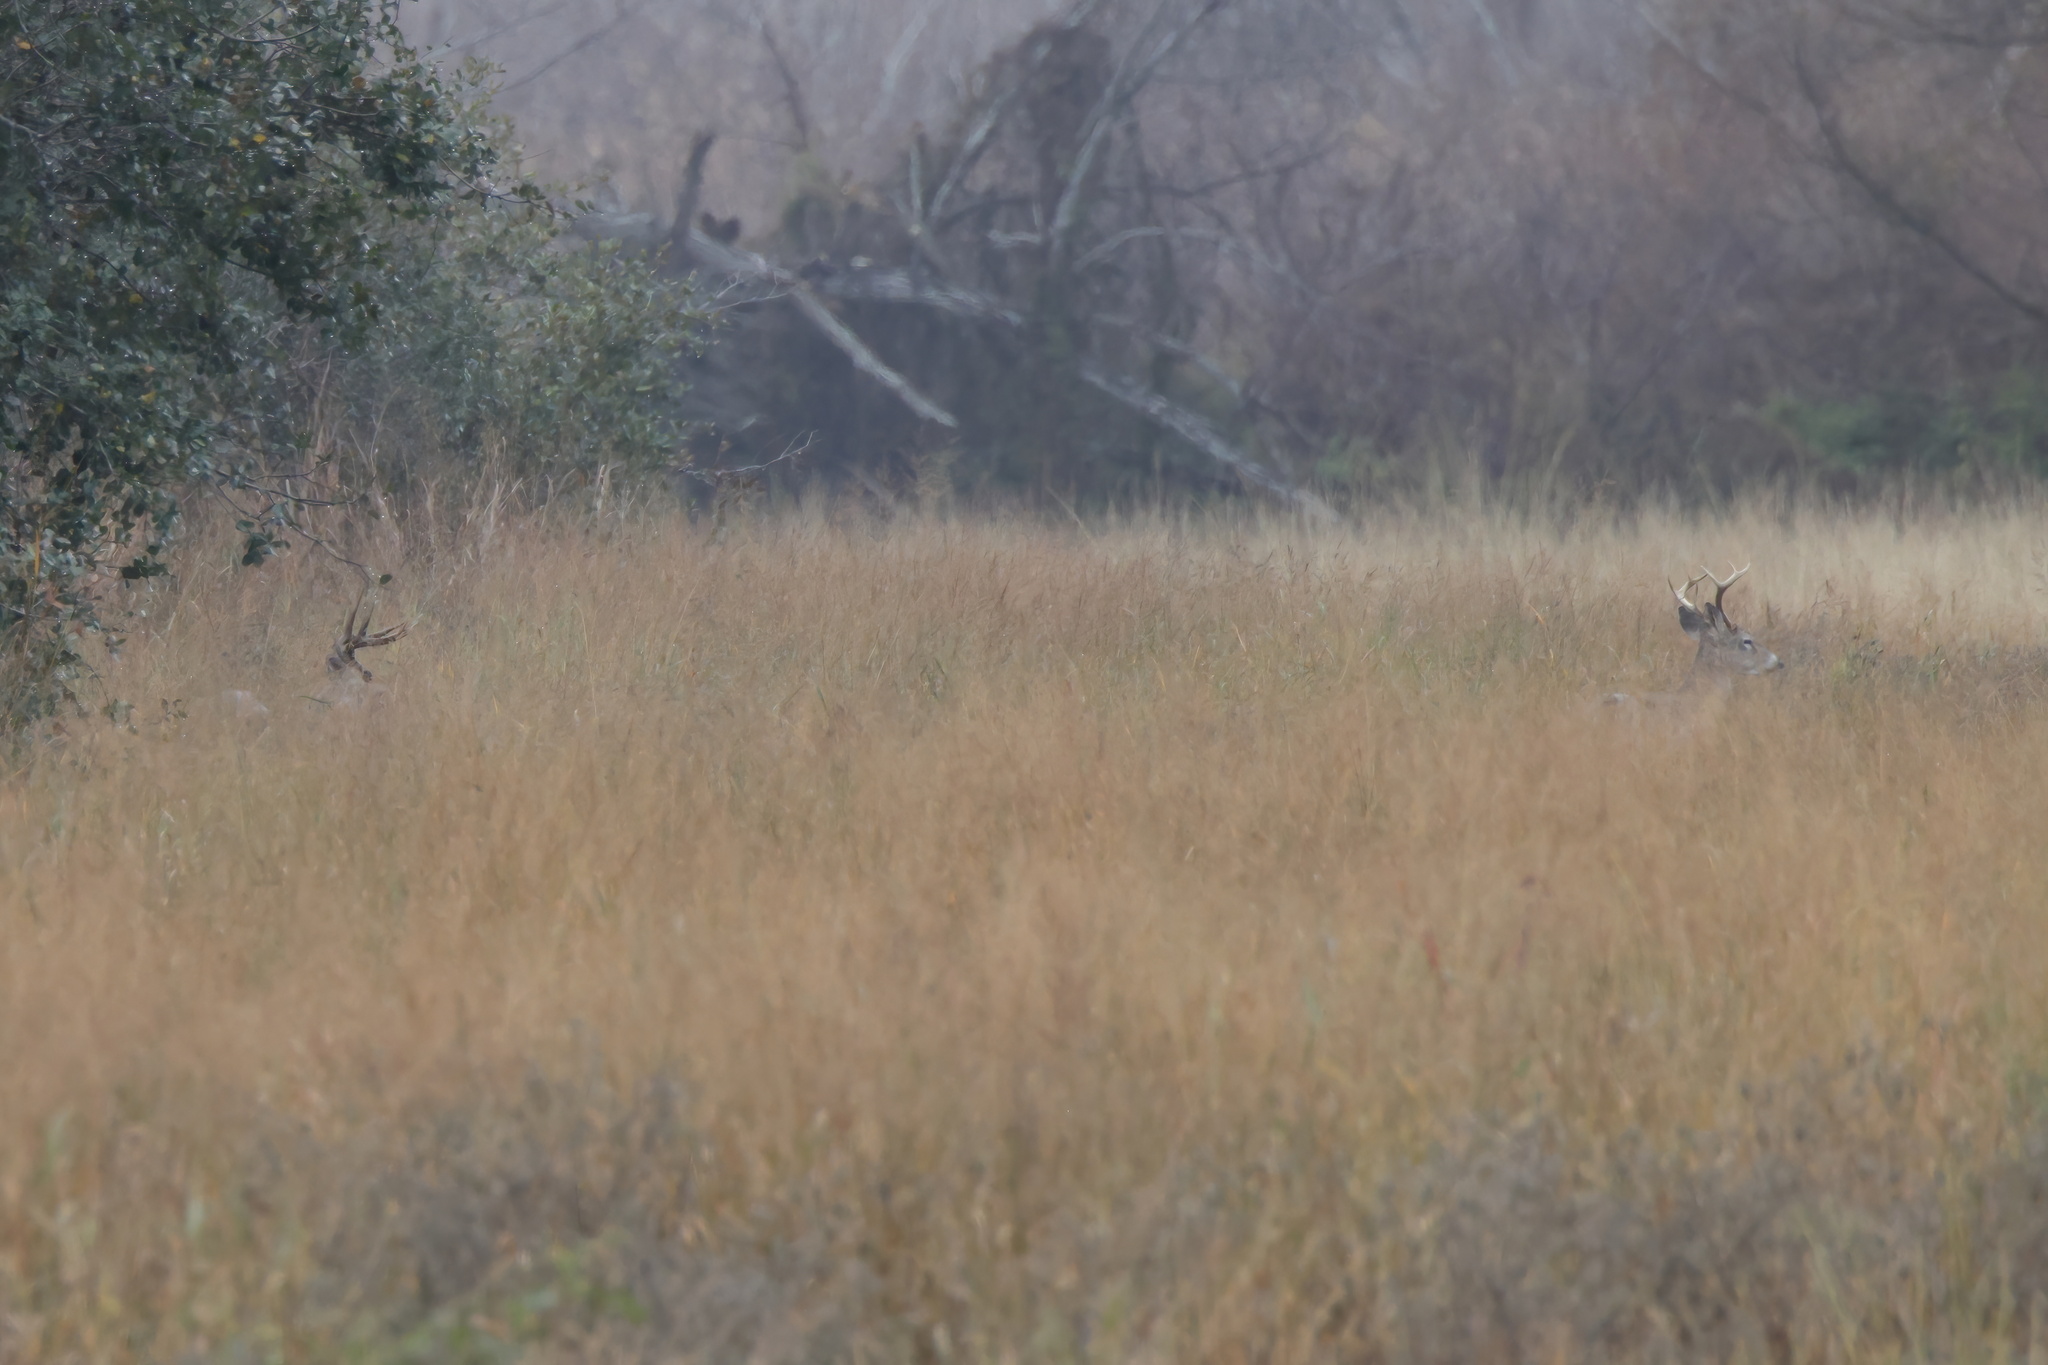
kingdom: Animalia
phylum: Chordata
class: Mammalia
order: Artiodactyla
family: Cervidae
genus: Odocoileus
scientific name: Odocoileus virginianus
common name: White-tailed deer
